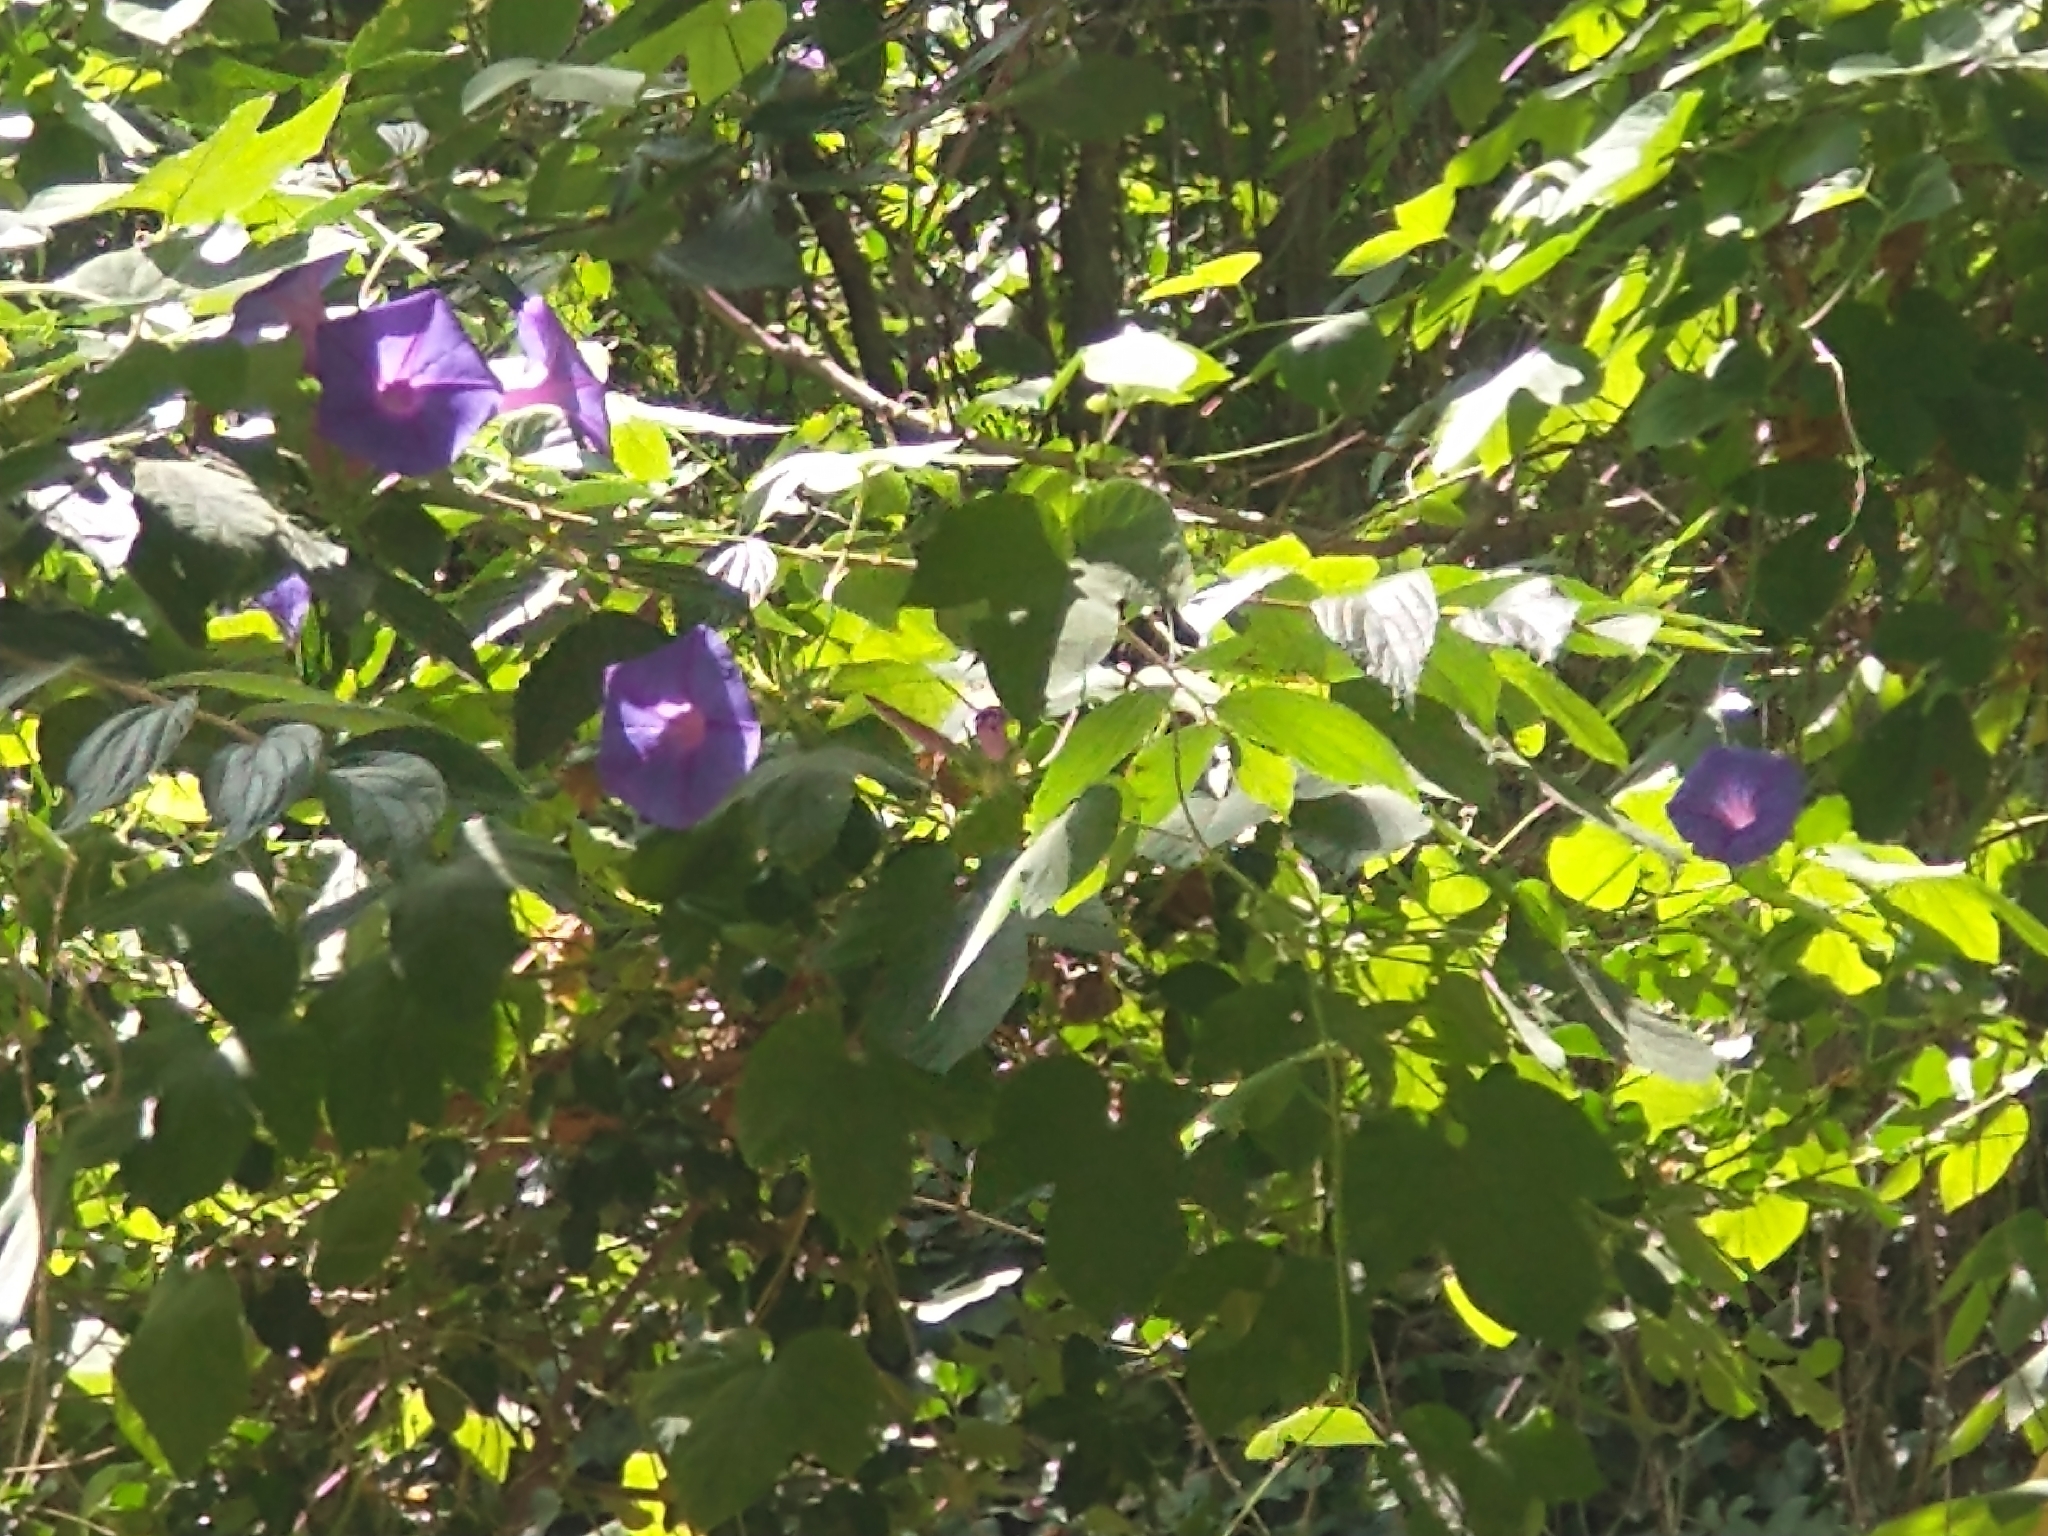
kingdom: Plantae
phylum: Tracheophyta
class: Magnoliopsida
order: Solanales
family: Convolvulaceae
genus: Ipomoea
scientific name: Ipomoea indica
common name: Blue dawnflower
